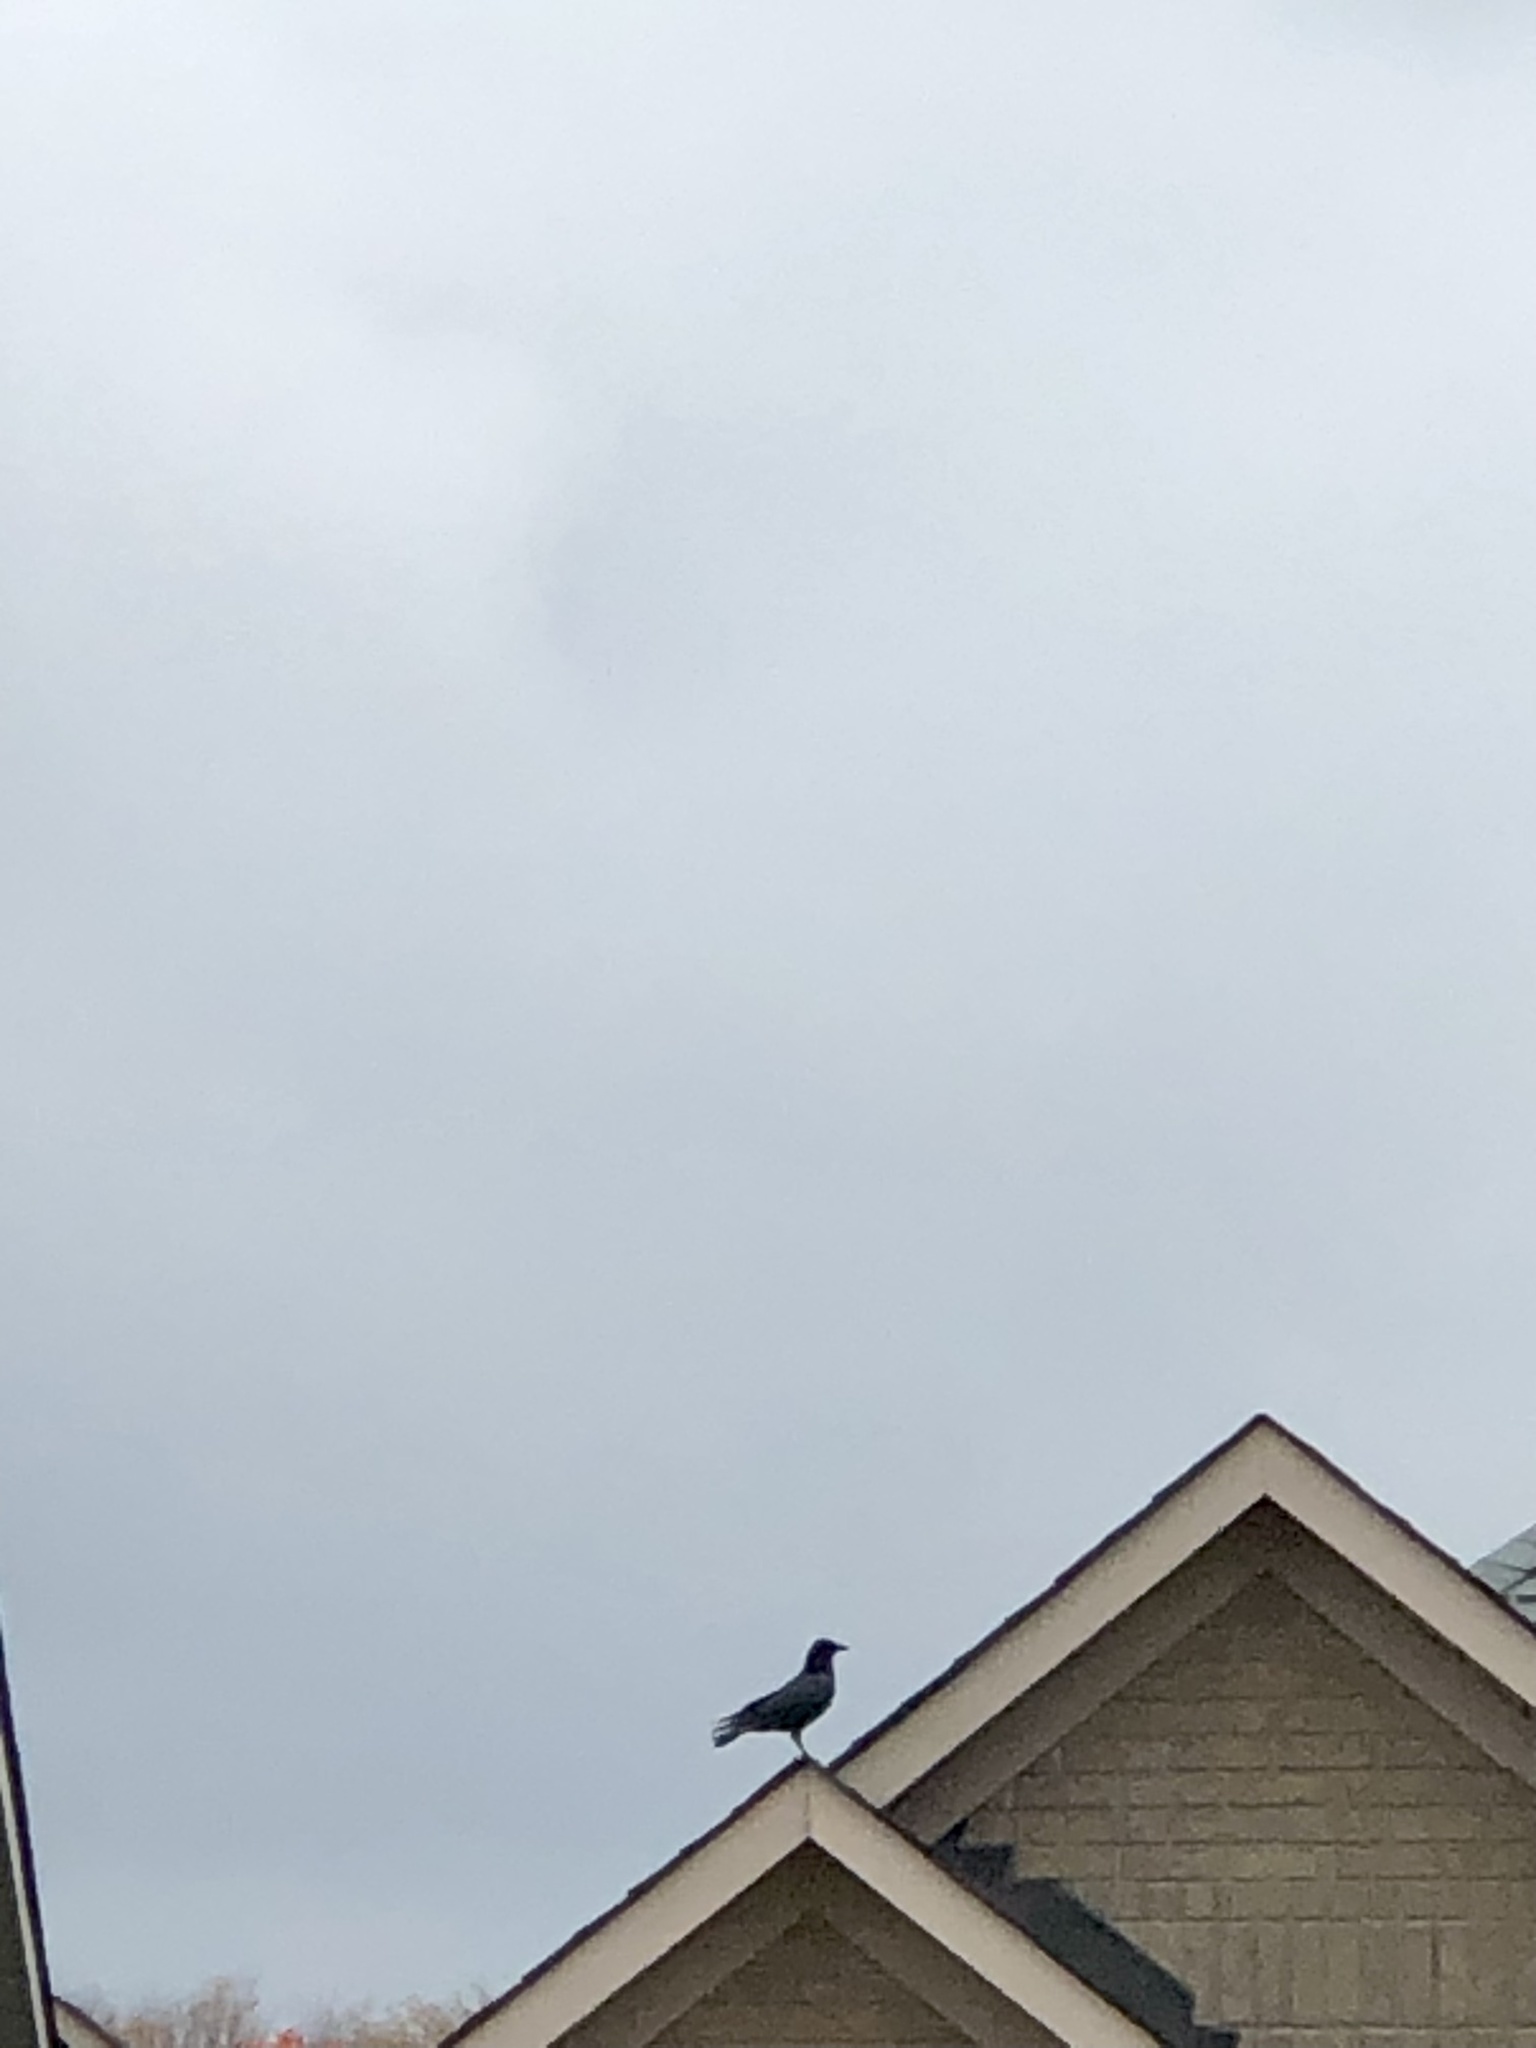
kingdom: Animalia
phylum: Chordata
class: Aves
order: Passeriformes
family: Corvidae
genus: Corvus
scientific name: Corvus brachyrhynchos
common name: American crow
